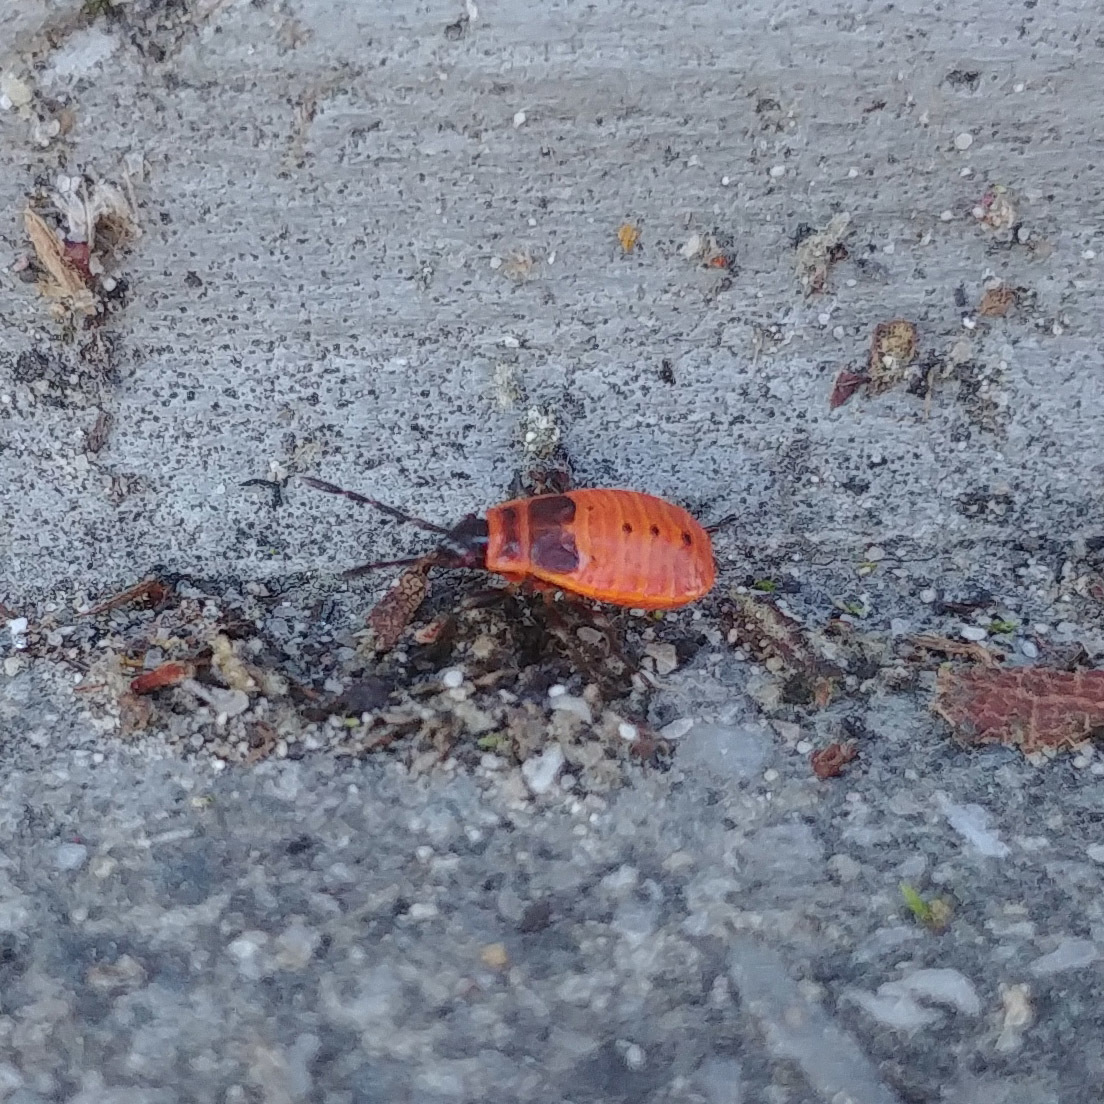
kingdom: Animalia
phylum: Arthropoda
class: Insecta
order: Hemiptera
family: Pyrrhocoridae
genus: Pyrrhocoris
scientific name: Pyrrhocoris apterus
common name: Firebug
